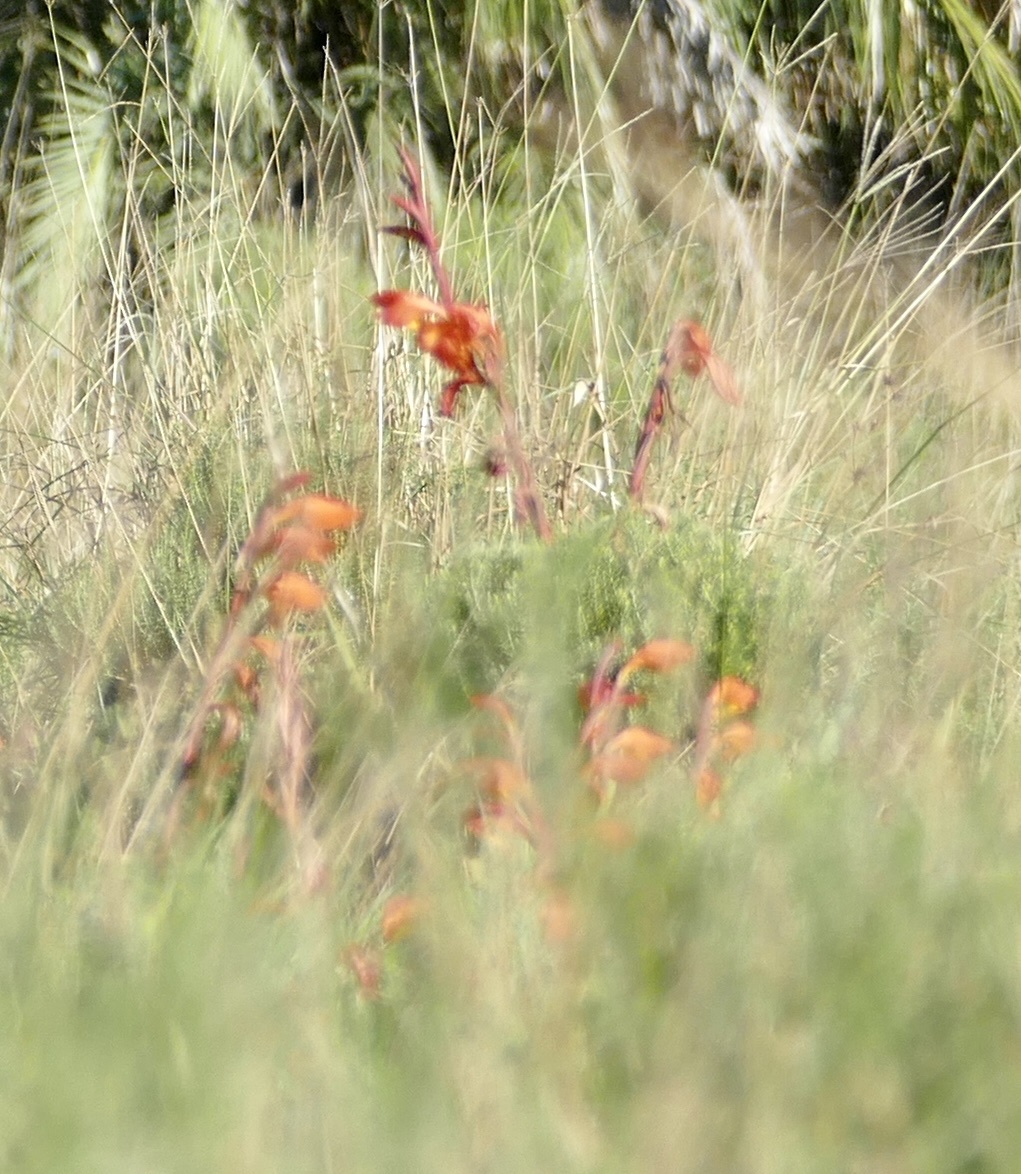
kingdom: Plantae
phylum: Tracheophyta
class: Liliopsida
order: Asparagales
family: Iridaceae
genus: Gladiolus
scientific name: Gladiolus dalenii
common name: Cornflag
